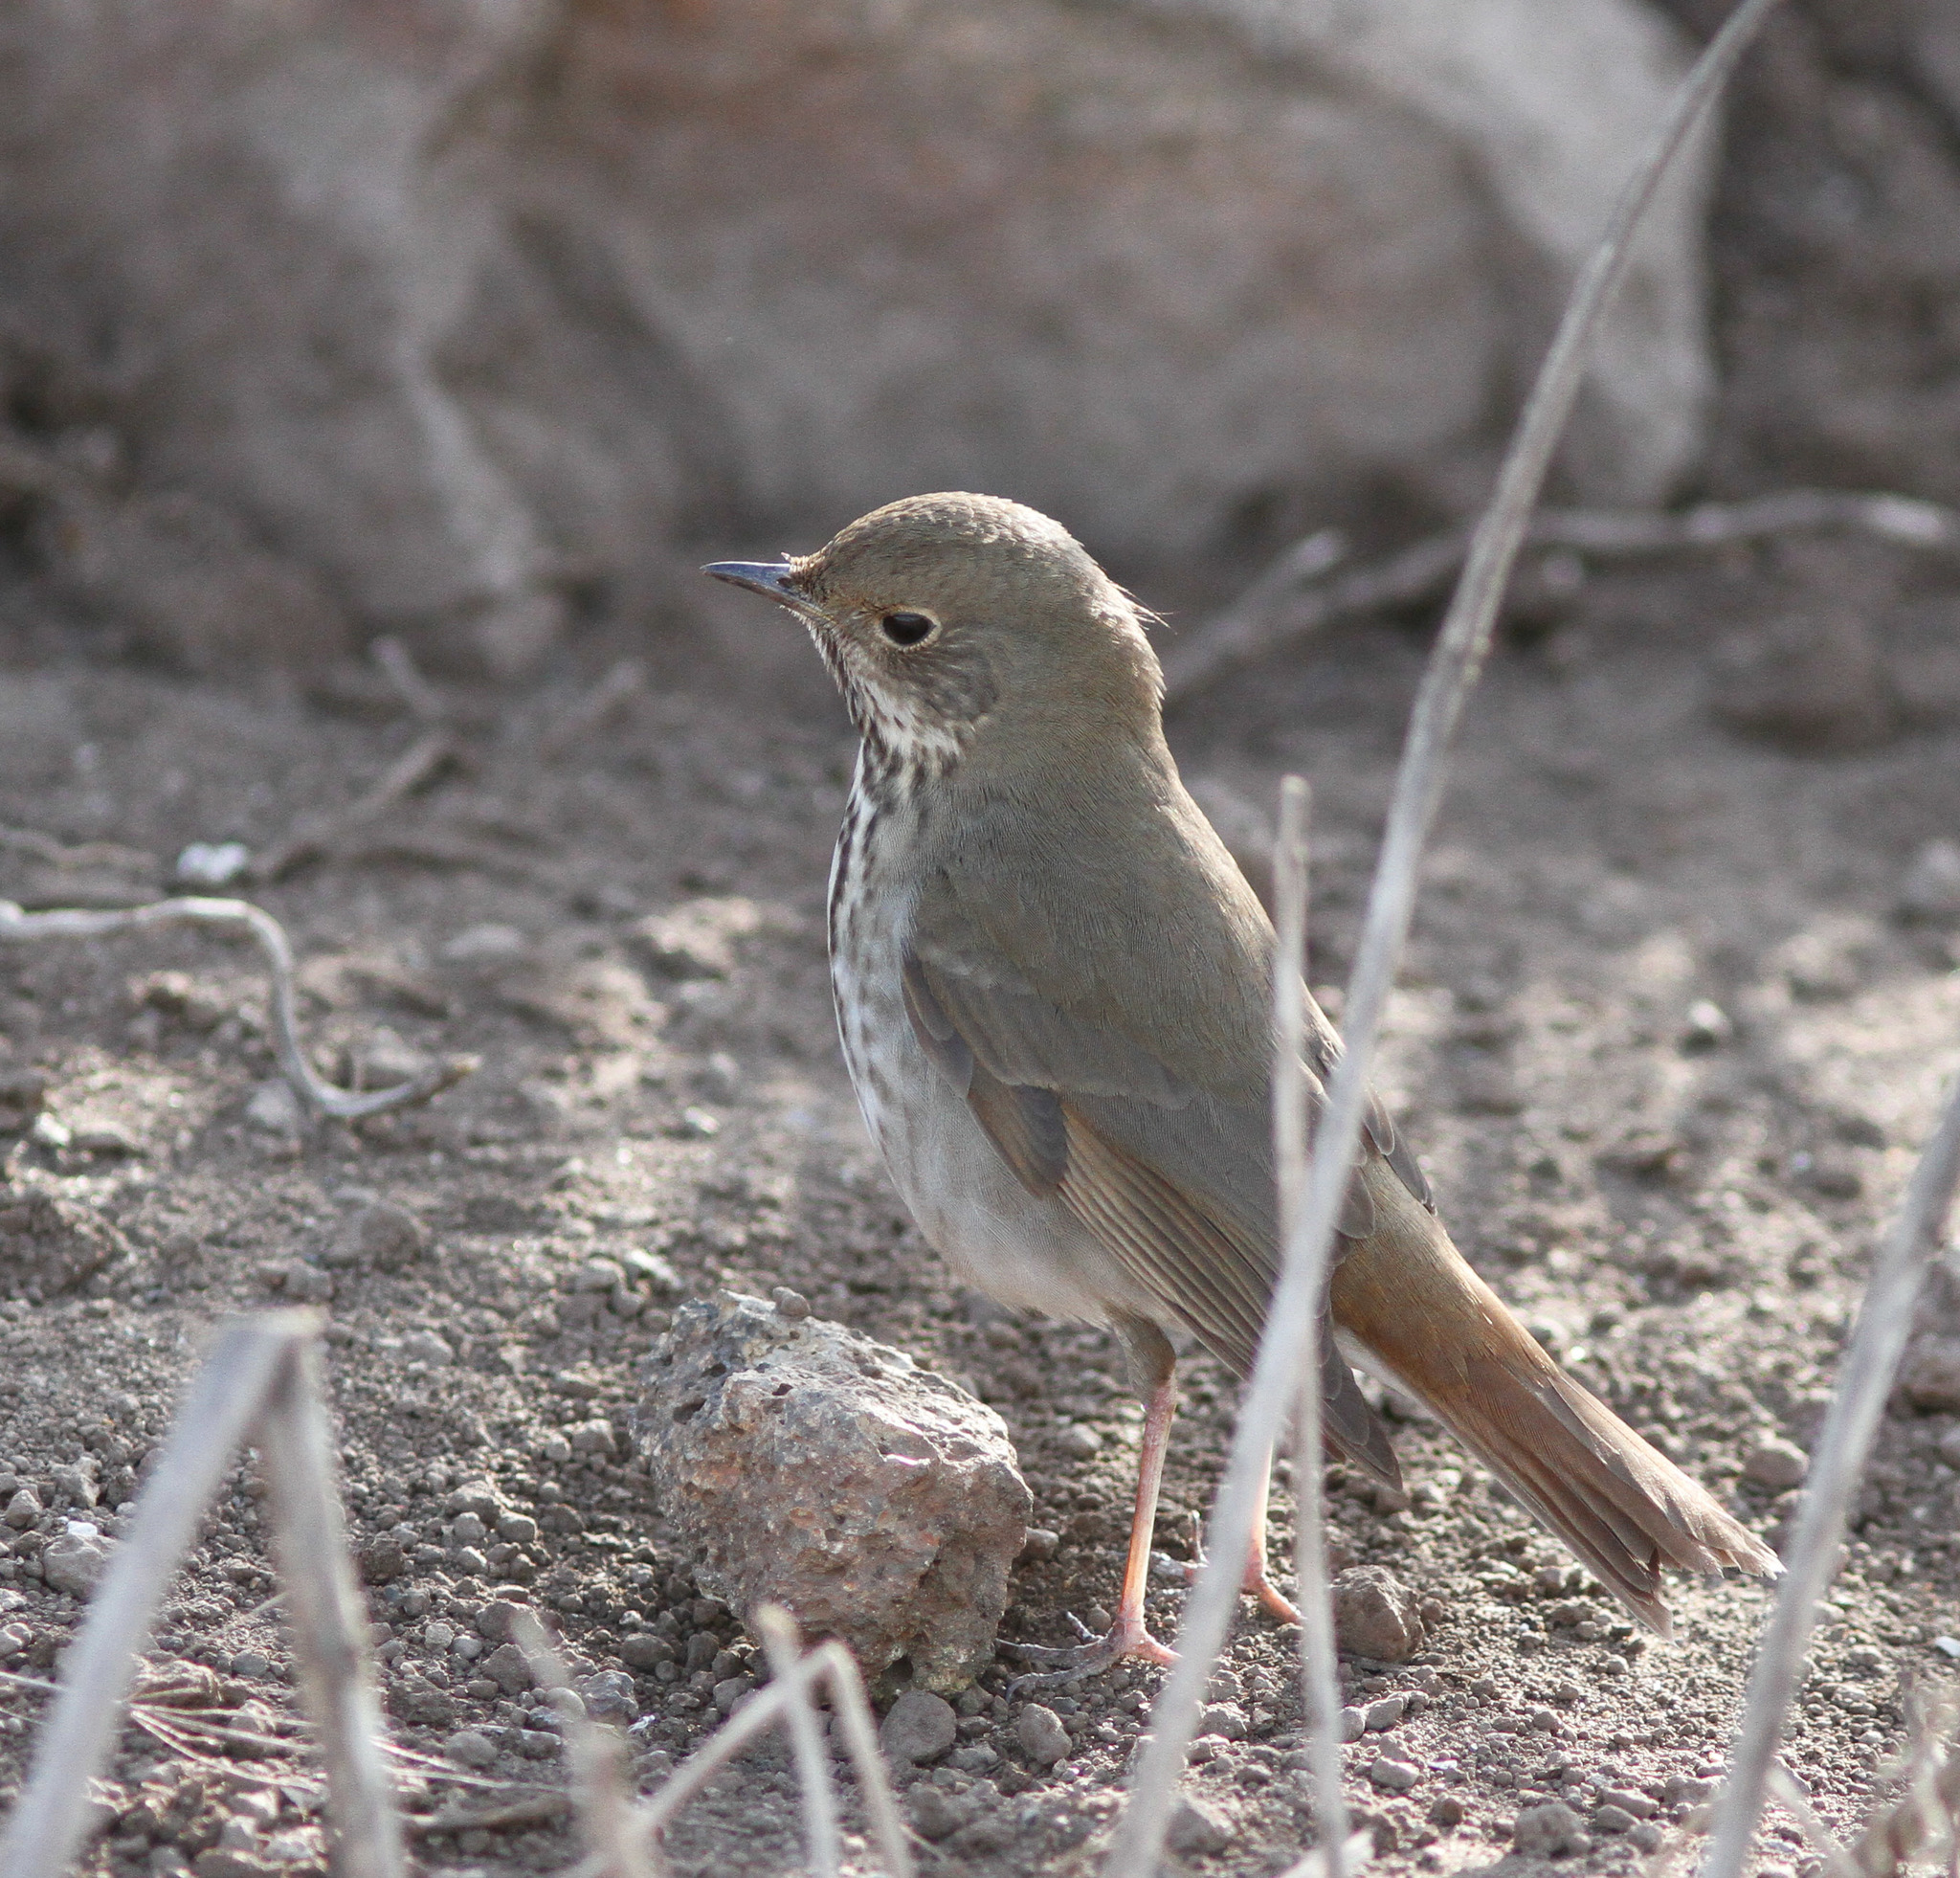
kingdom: Animalia
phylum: Chordata
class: Aves
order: Passeriformes
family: Turdidae
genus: Catharus
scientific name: Catharus guttatus
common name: Hermit thrush
